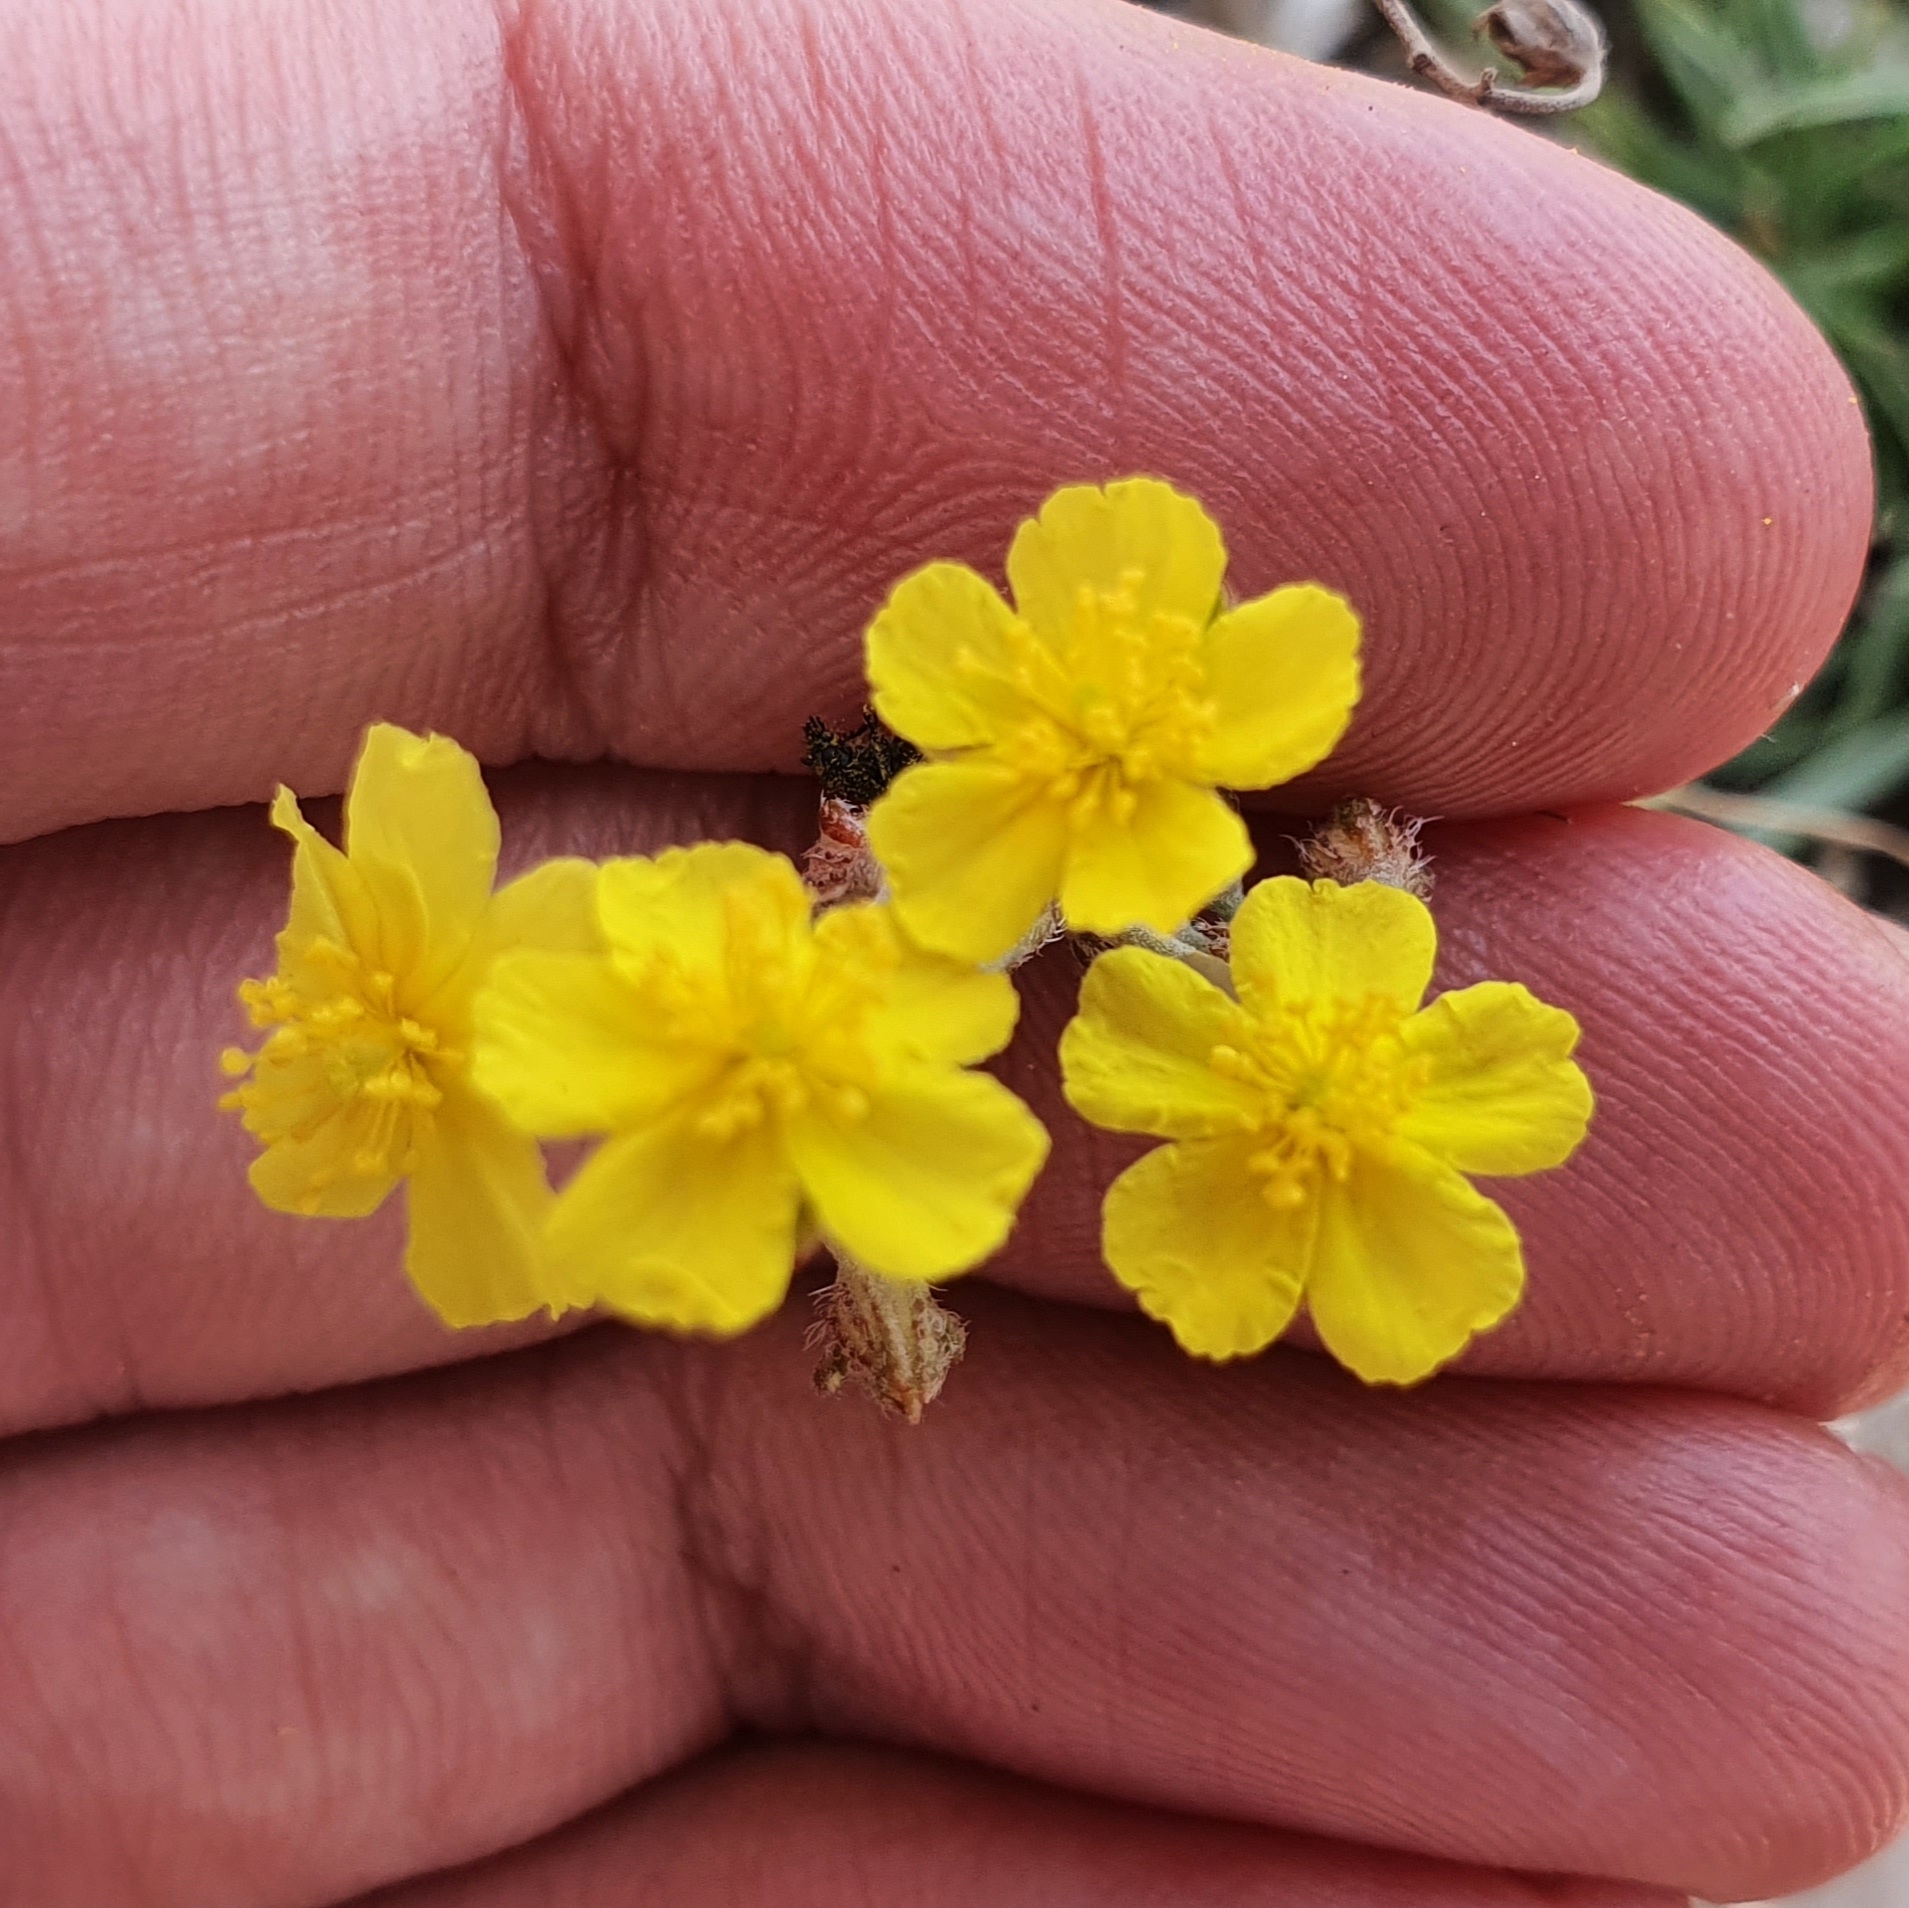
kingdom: Plantae
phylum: Tracheophyta
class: Magnoliopsida
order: Malvales
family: Cistaceae
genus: Helianthemum
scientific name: Helianthemum cinereum
